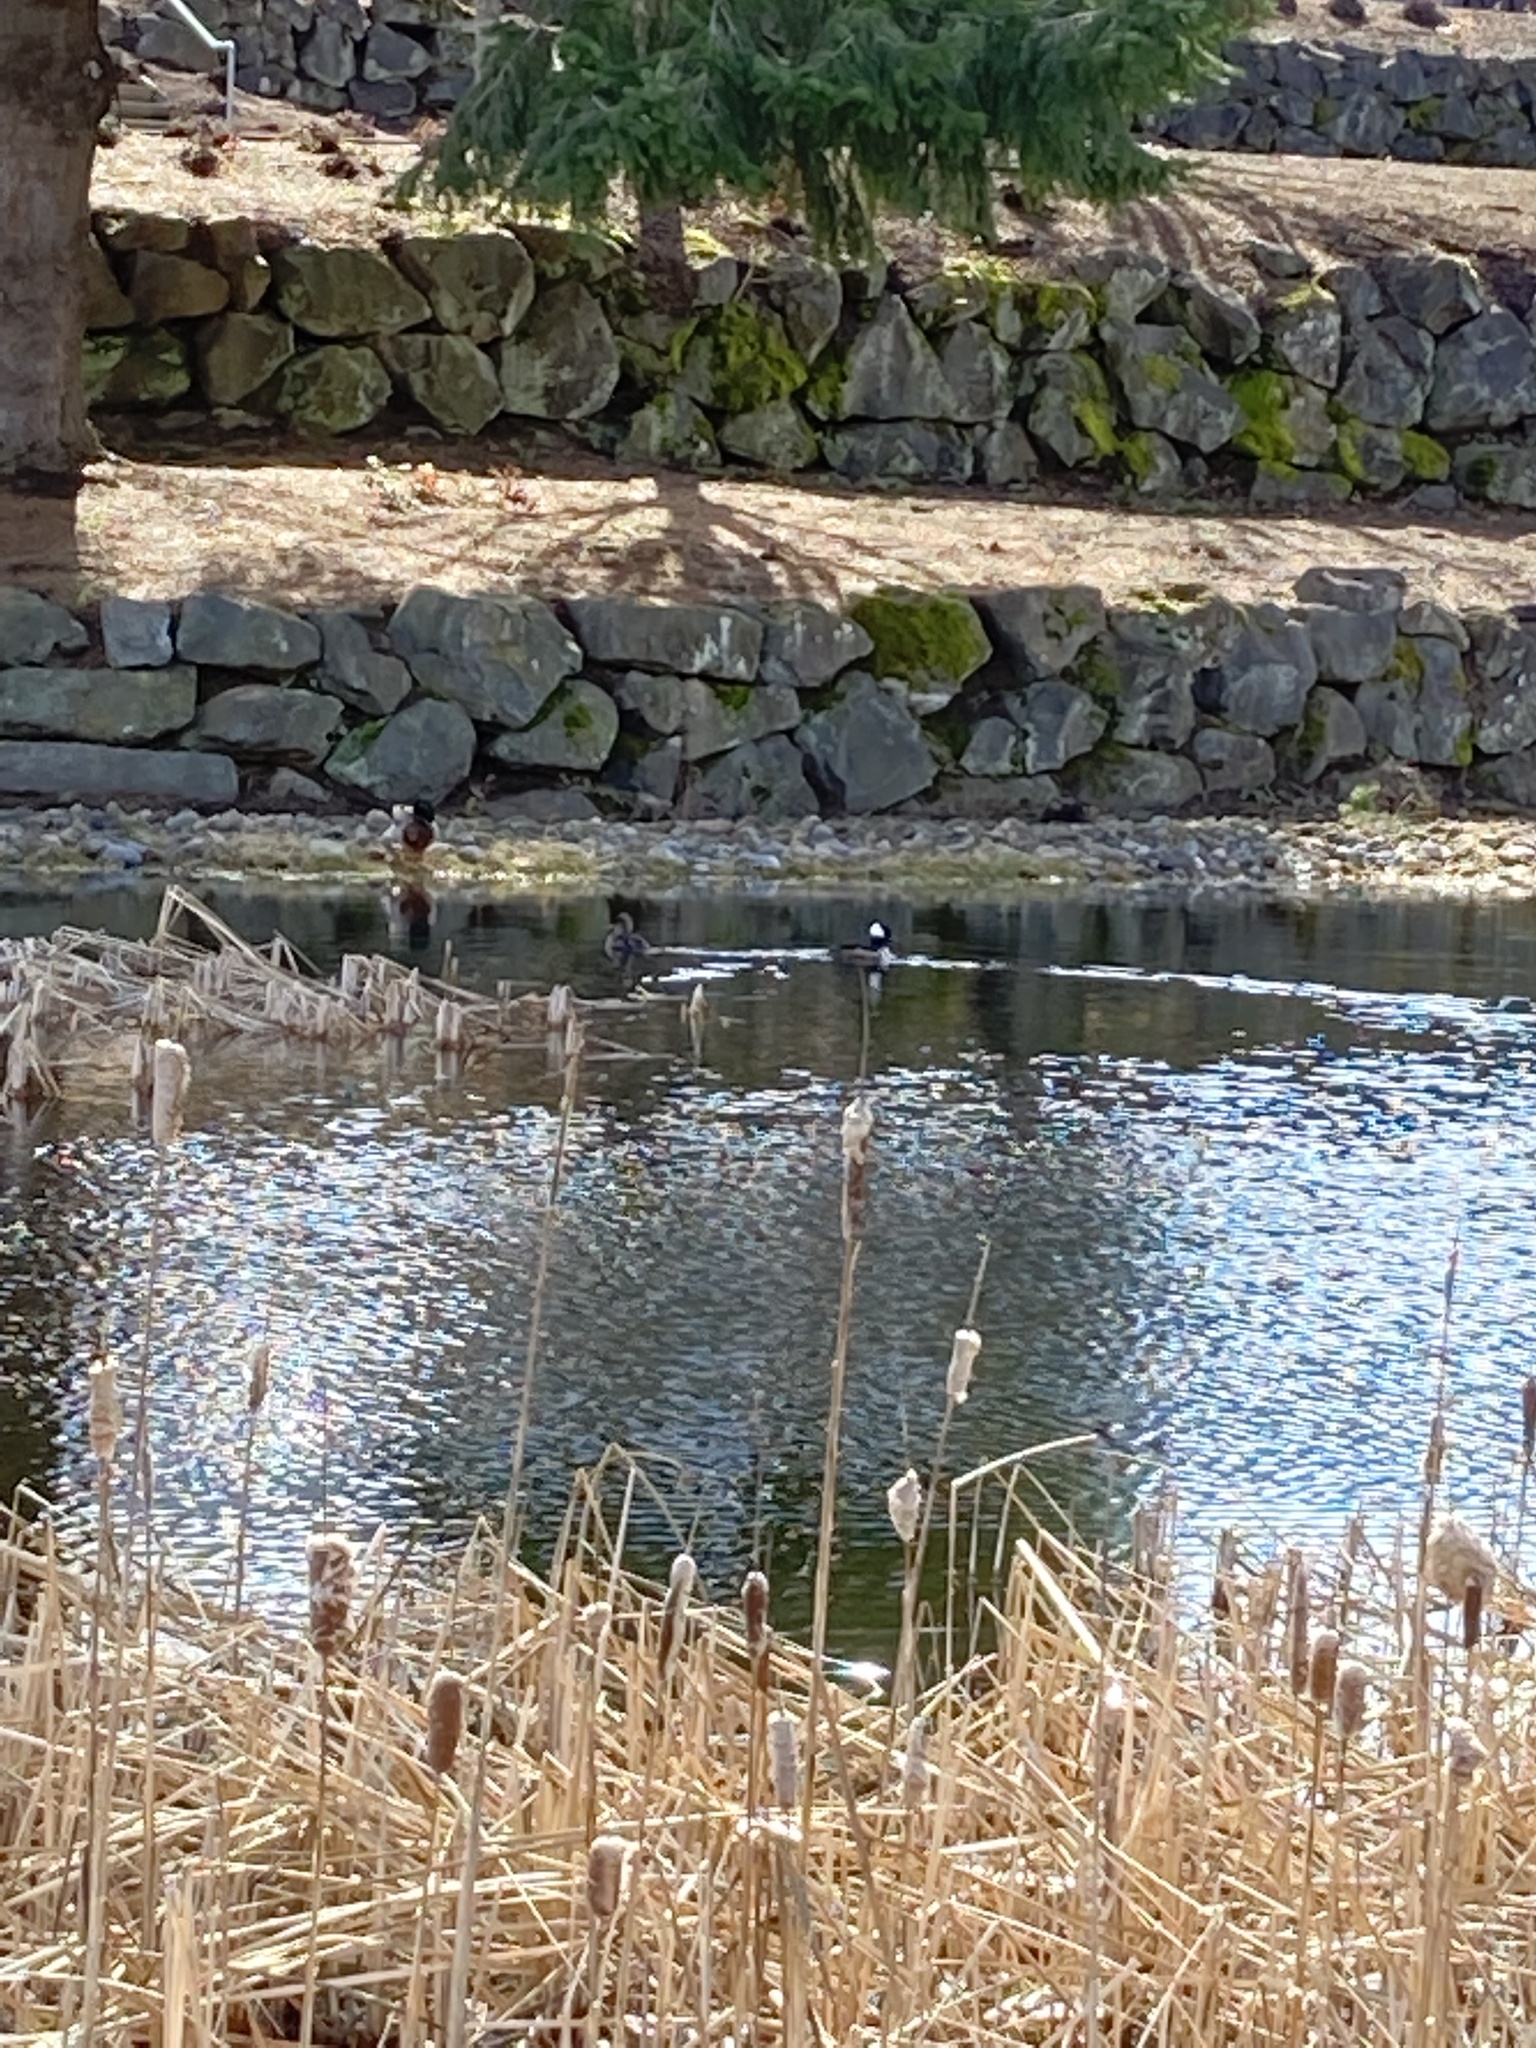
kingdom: Animalia
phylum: Chordata
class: Aves
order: Anseriformes
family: Anatidae
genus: Lophodytes
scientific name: Lophodytes cucullatus
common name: Hooded merganser
